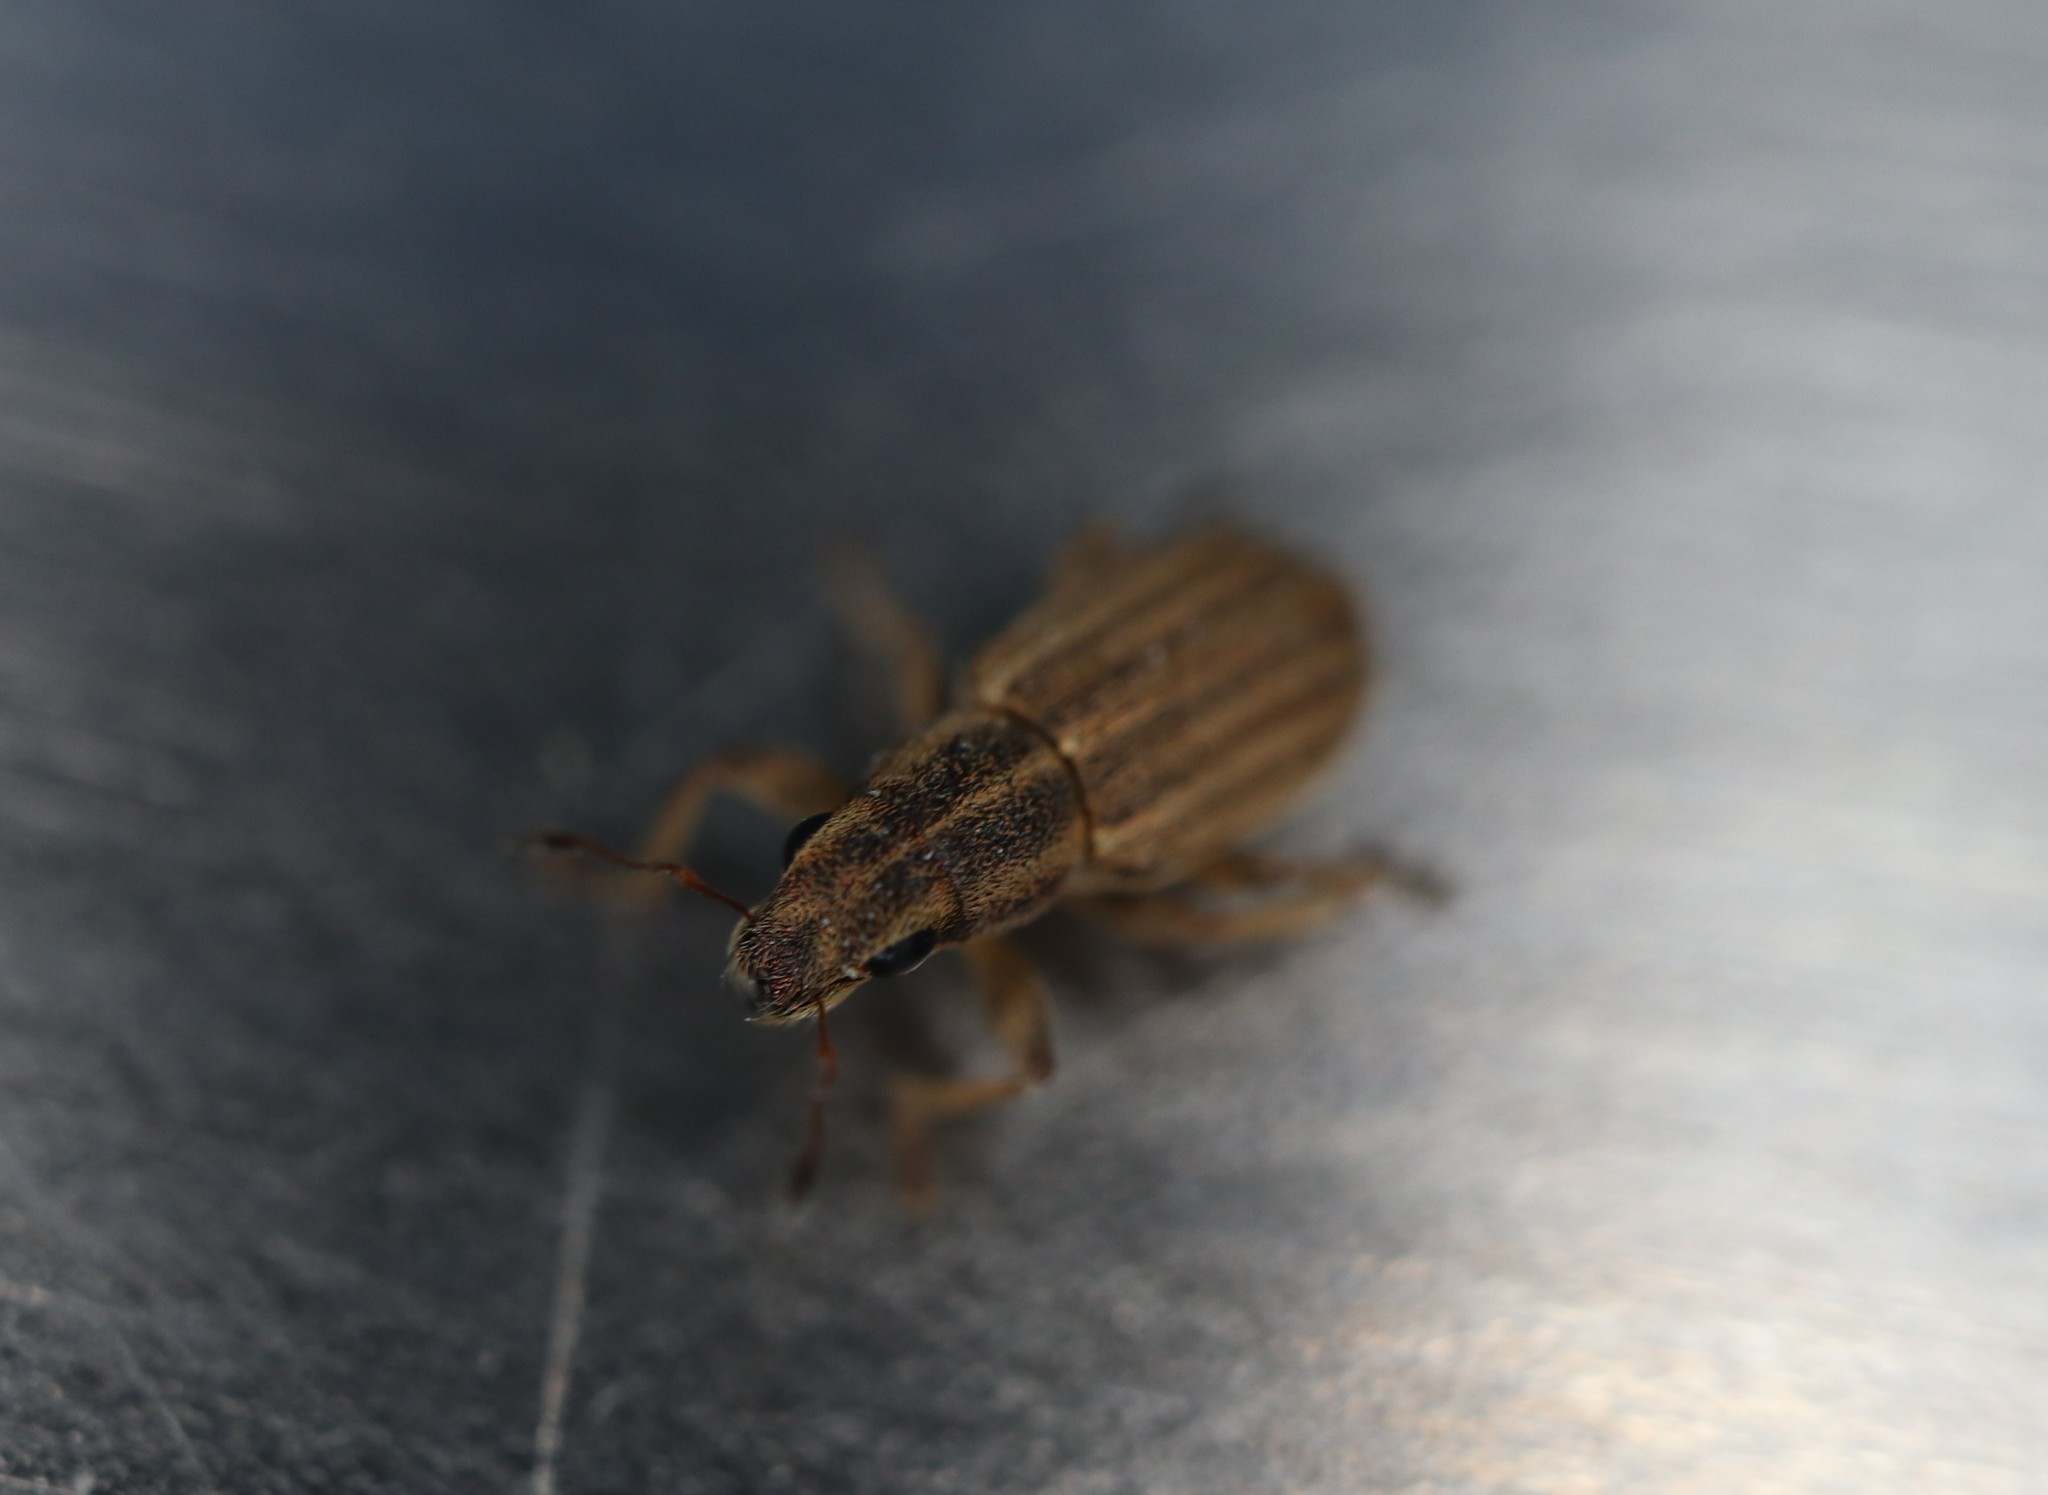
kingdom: Animalia
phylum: Arthropoda
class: Insecta
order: Coleoptera
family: Curculionidae
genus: Sitona
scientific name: Sitona lineatus
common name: Weevil
